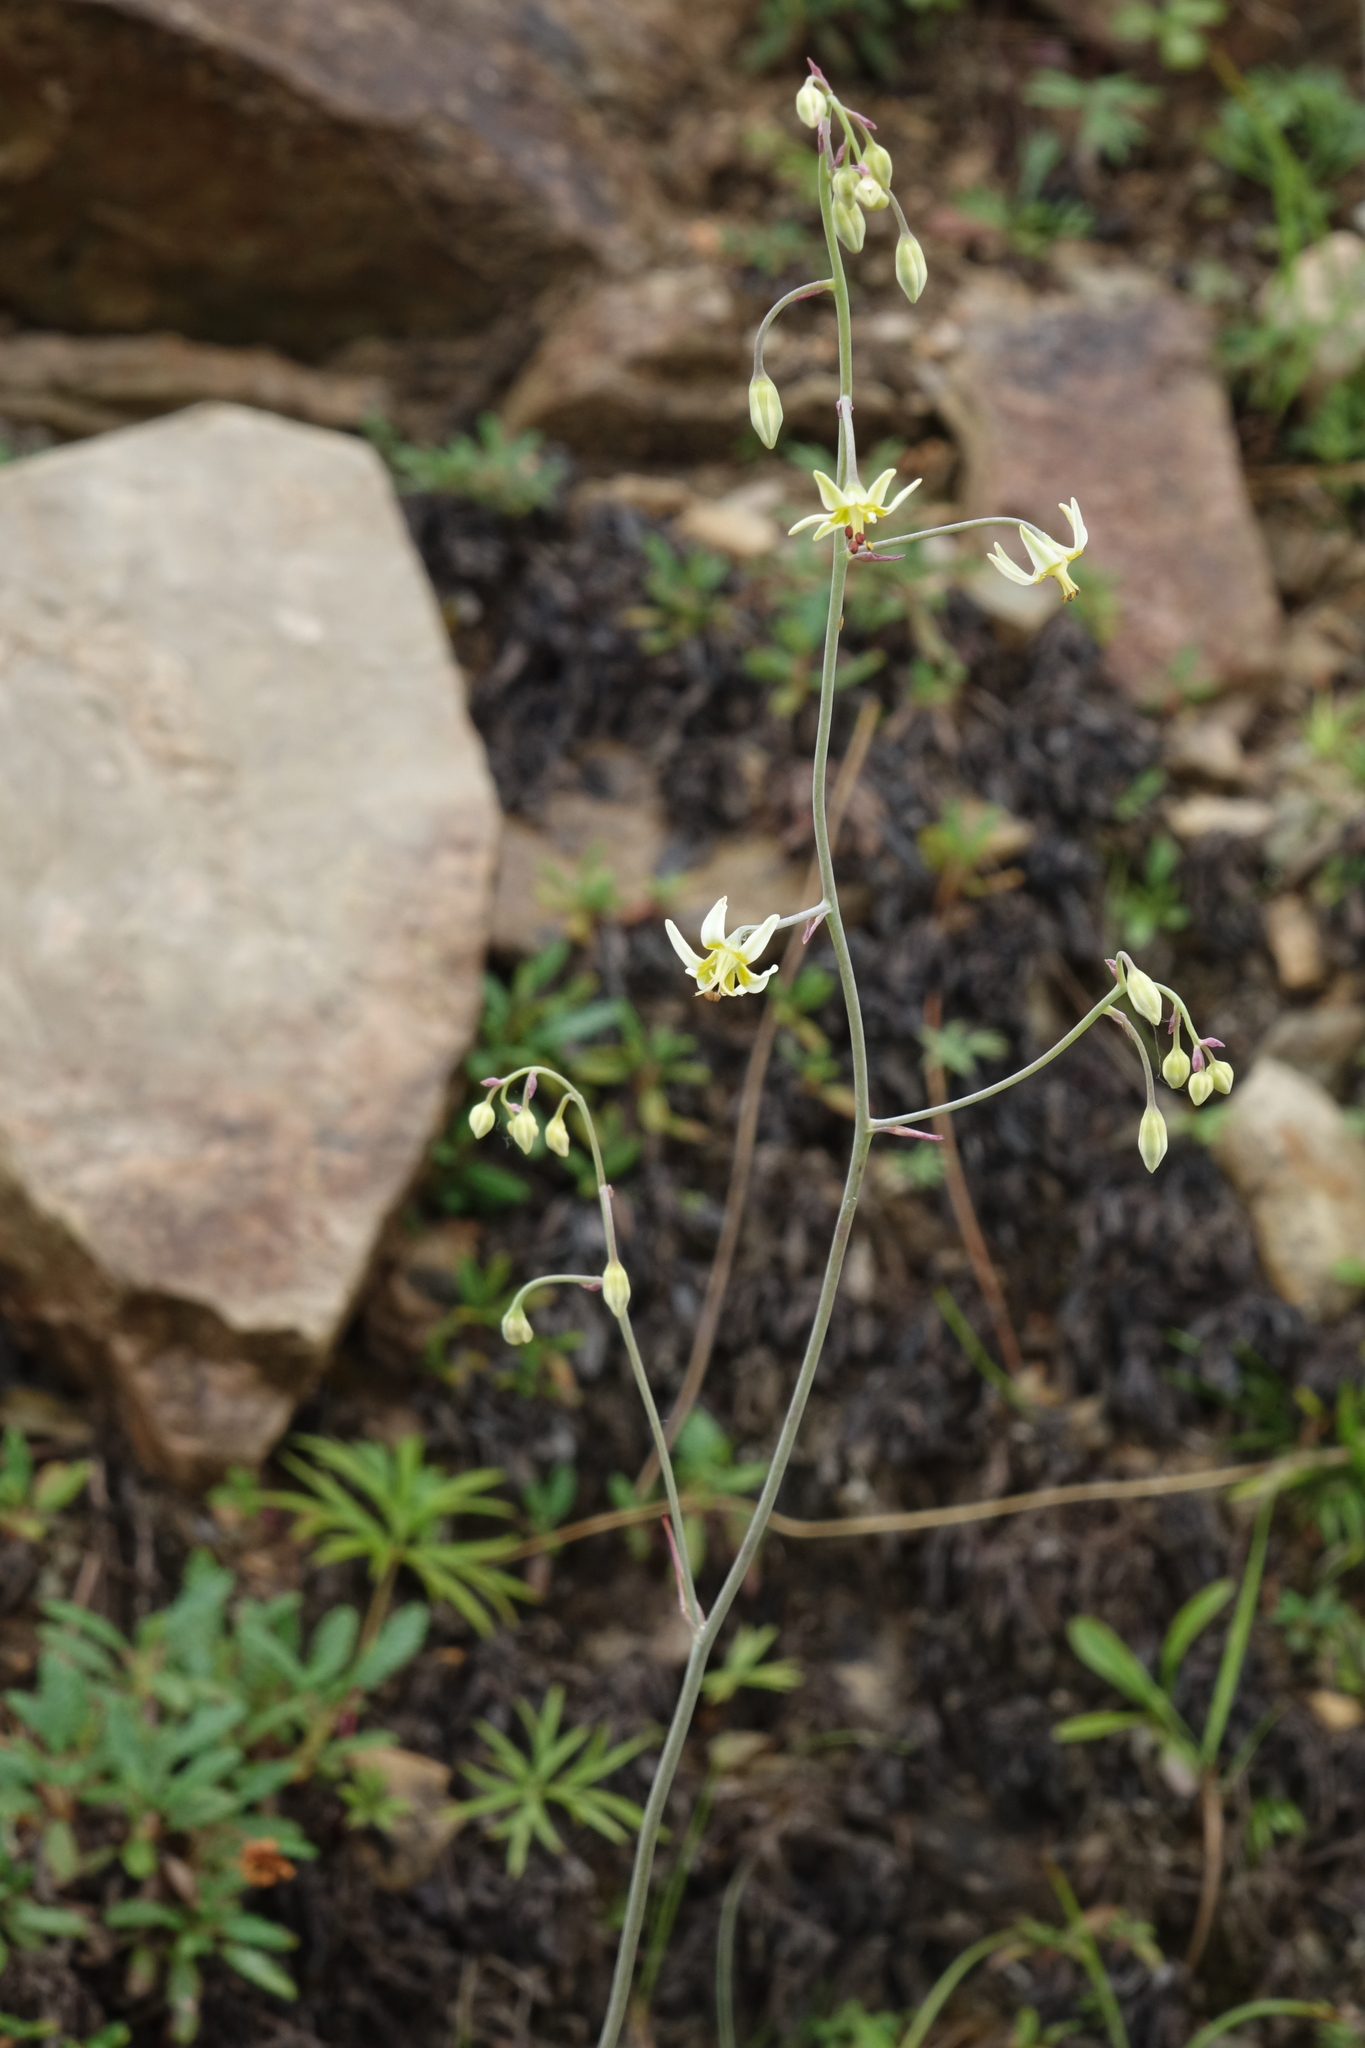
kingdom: Plantae
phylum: Tracheophyta
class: Liliopsida
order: Liliales
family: Melanthiaceae
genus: Anticlea
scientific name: Anticlea sibirica
